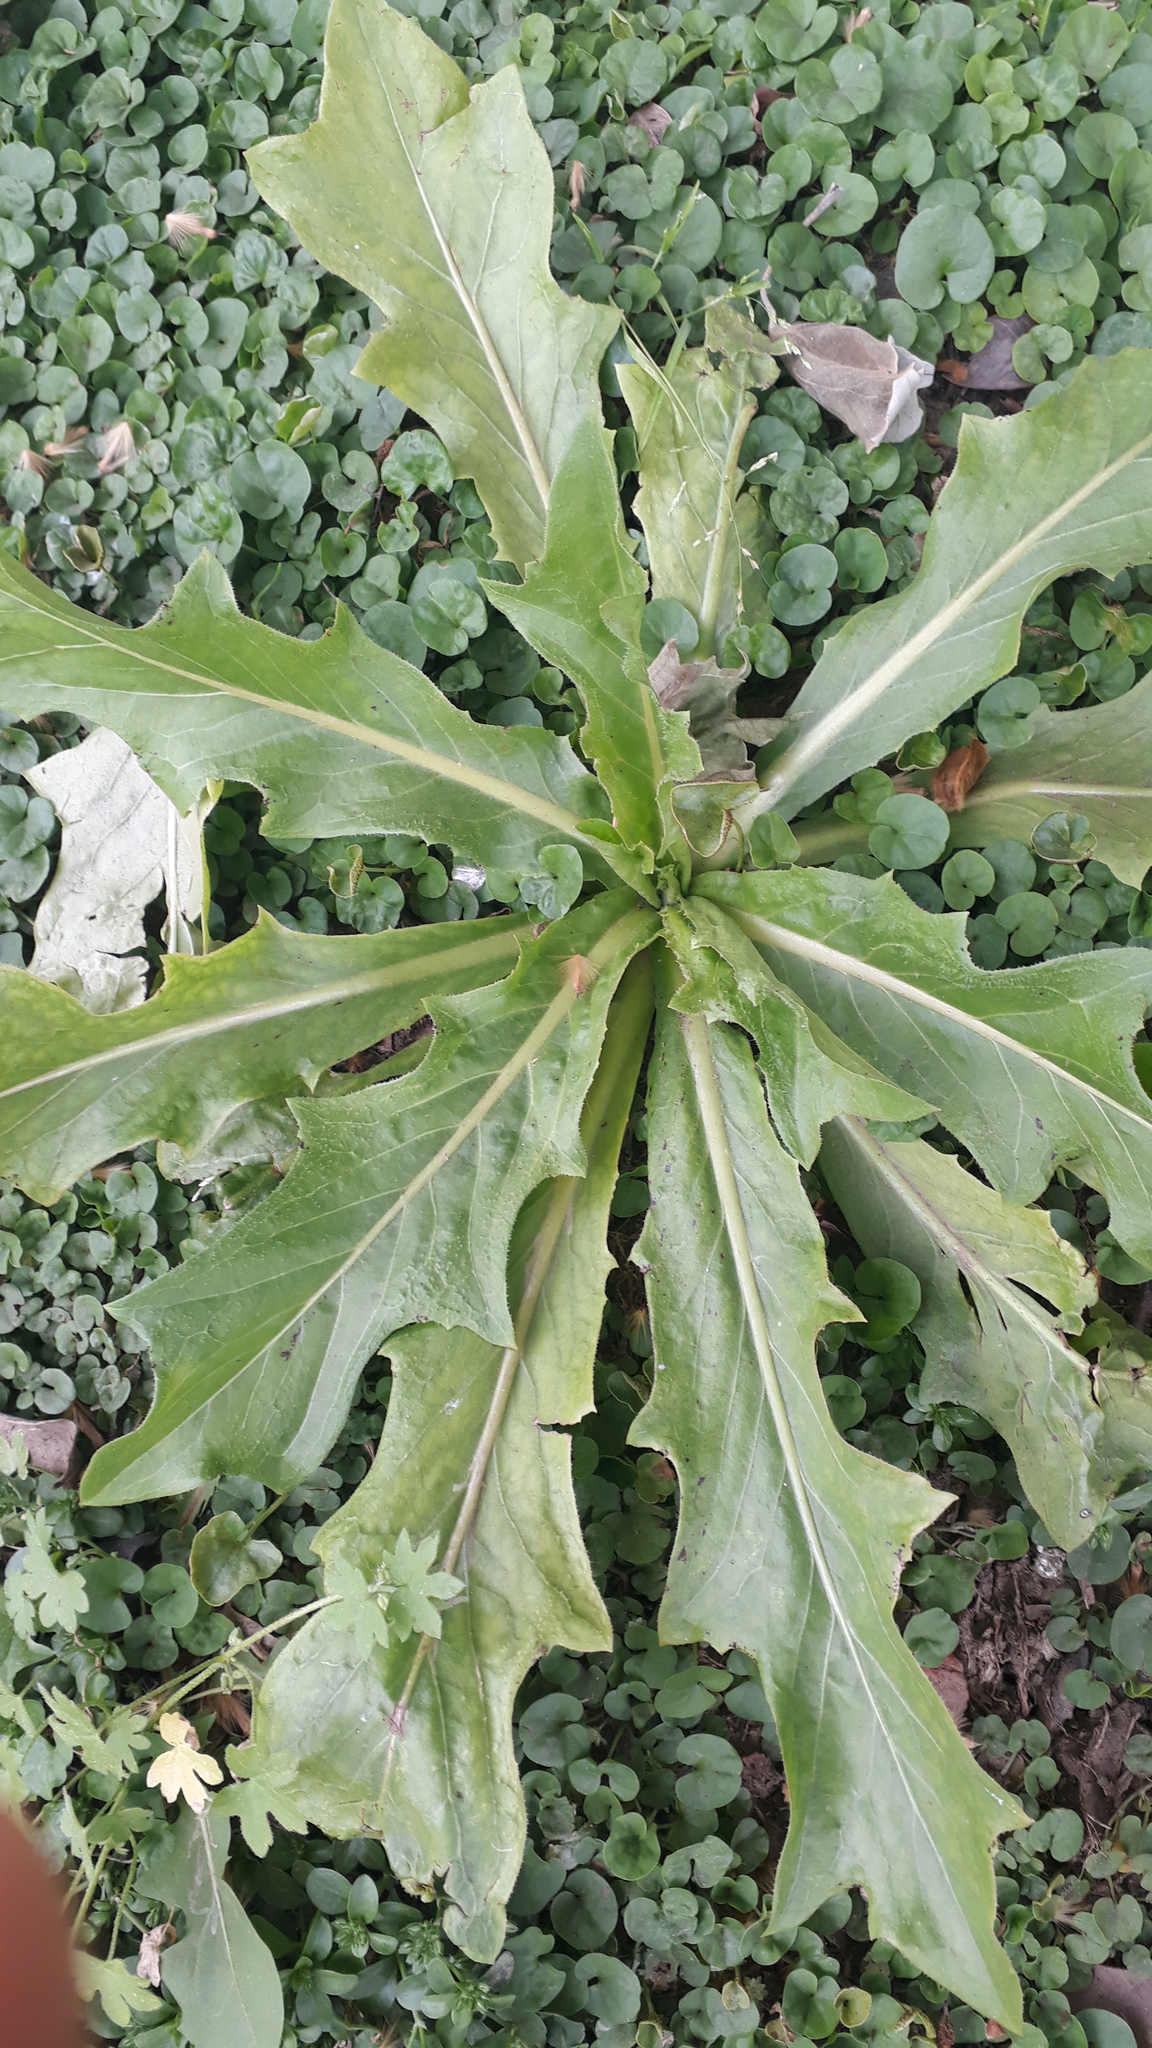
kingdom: Plantae
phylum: Tracheophyta
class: Magnoliopsida
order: Asterales
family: Asteraceae
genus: Hypochaeris
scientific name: Hypochaeris chillensis
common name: Brazilian cat's ear
